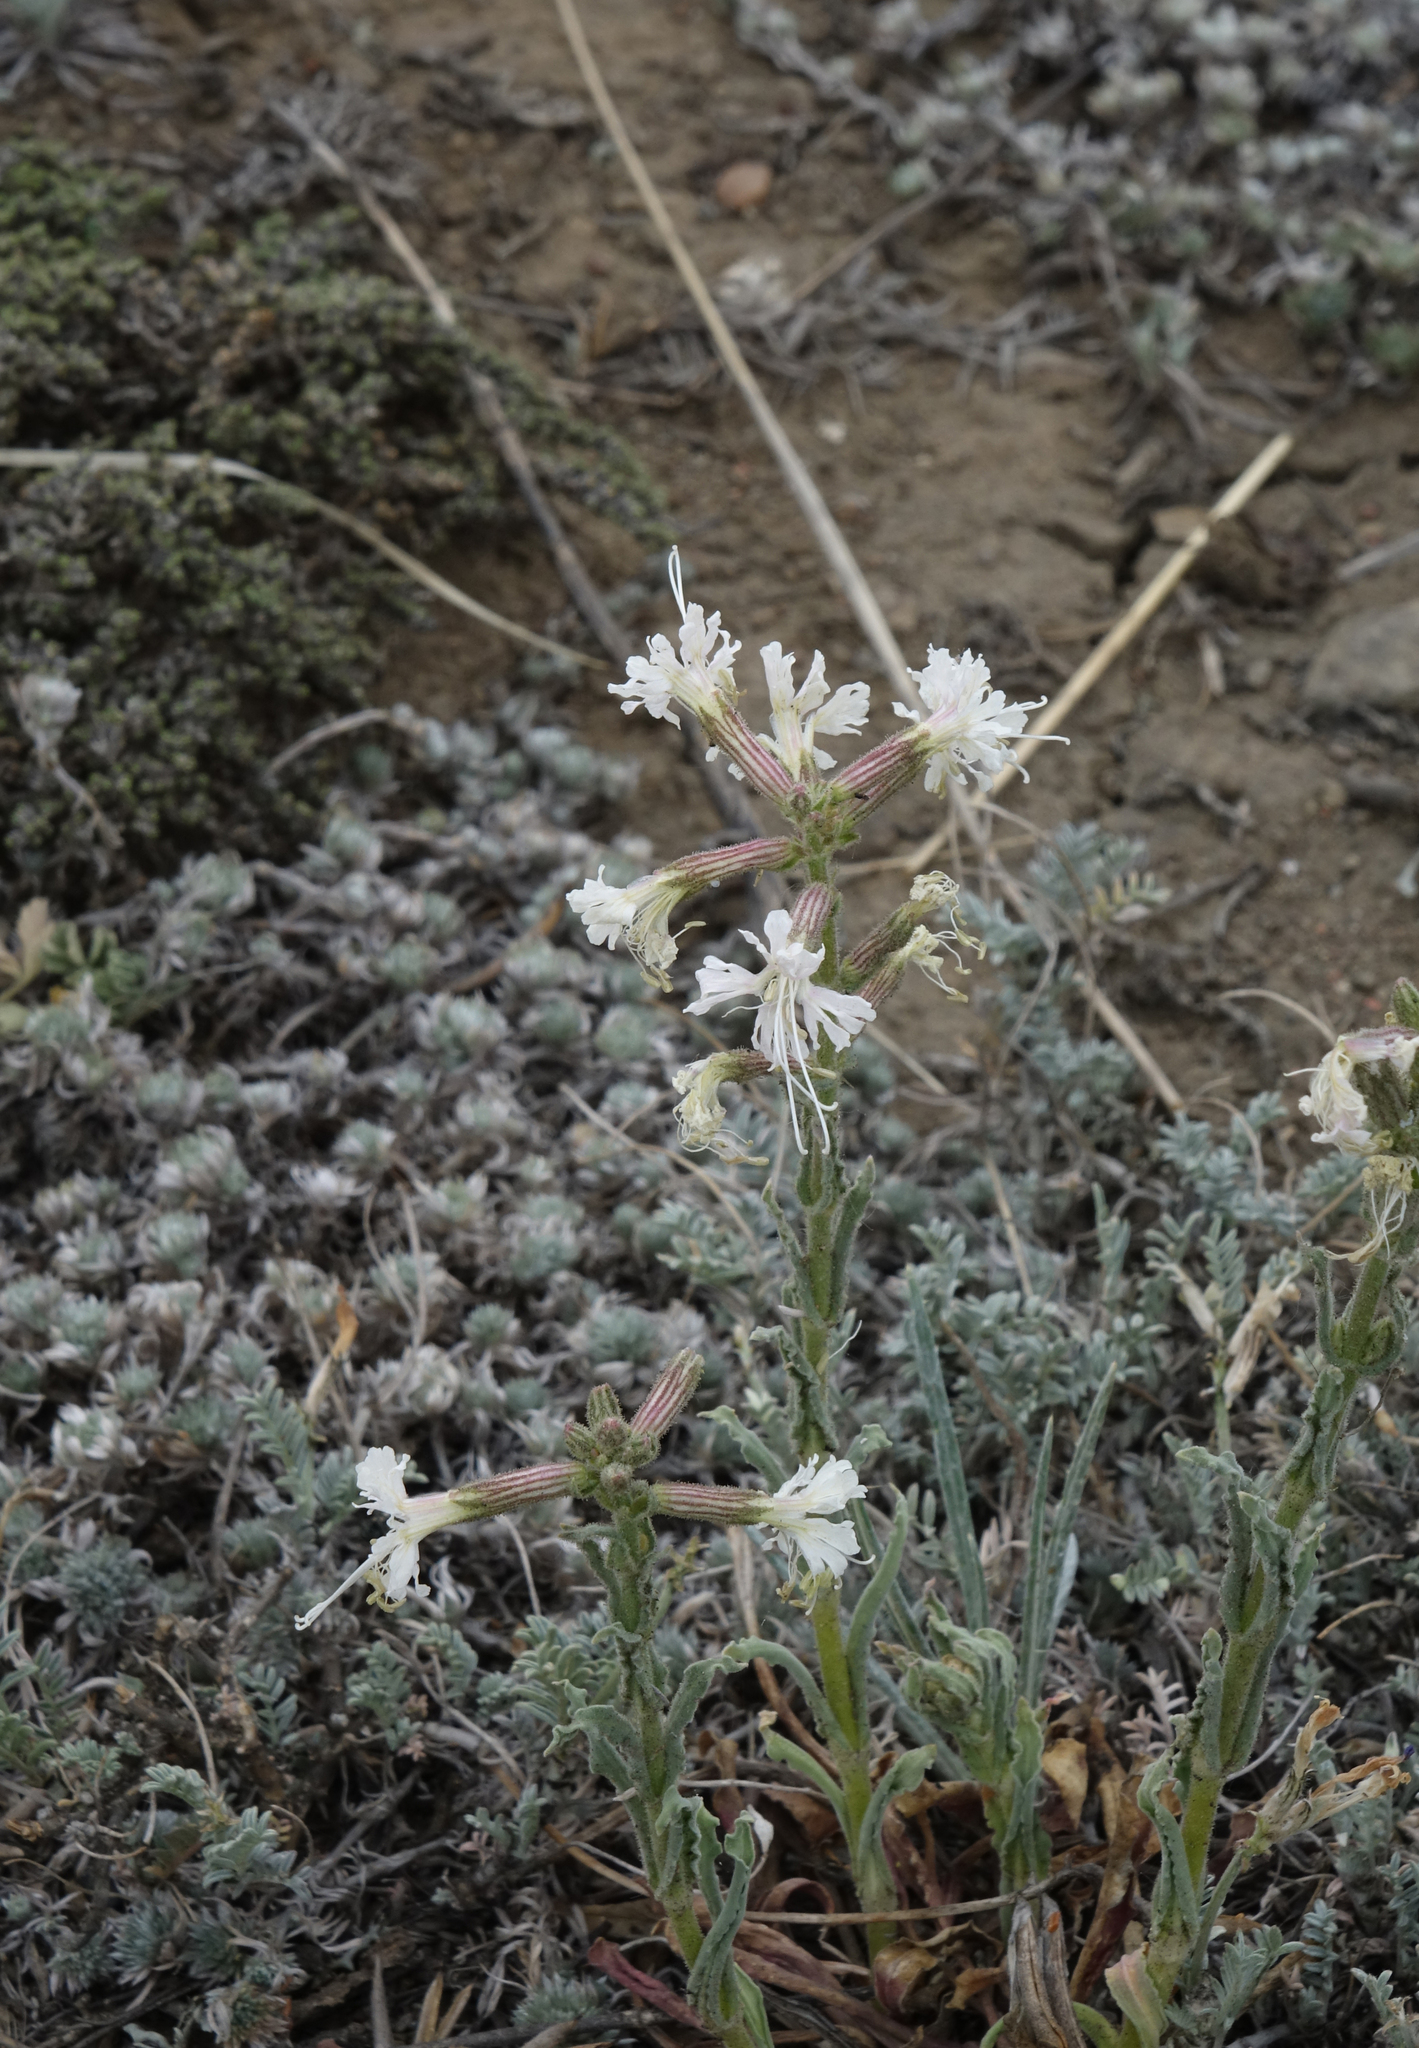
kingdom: Plantae
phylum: Tracheophyta
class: Magnoliopsida
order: Caryophyllales
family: Caryophyllaceae
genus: Silene
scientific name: Silene viscosa
